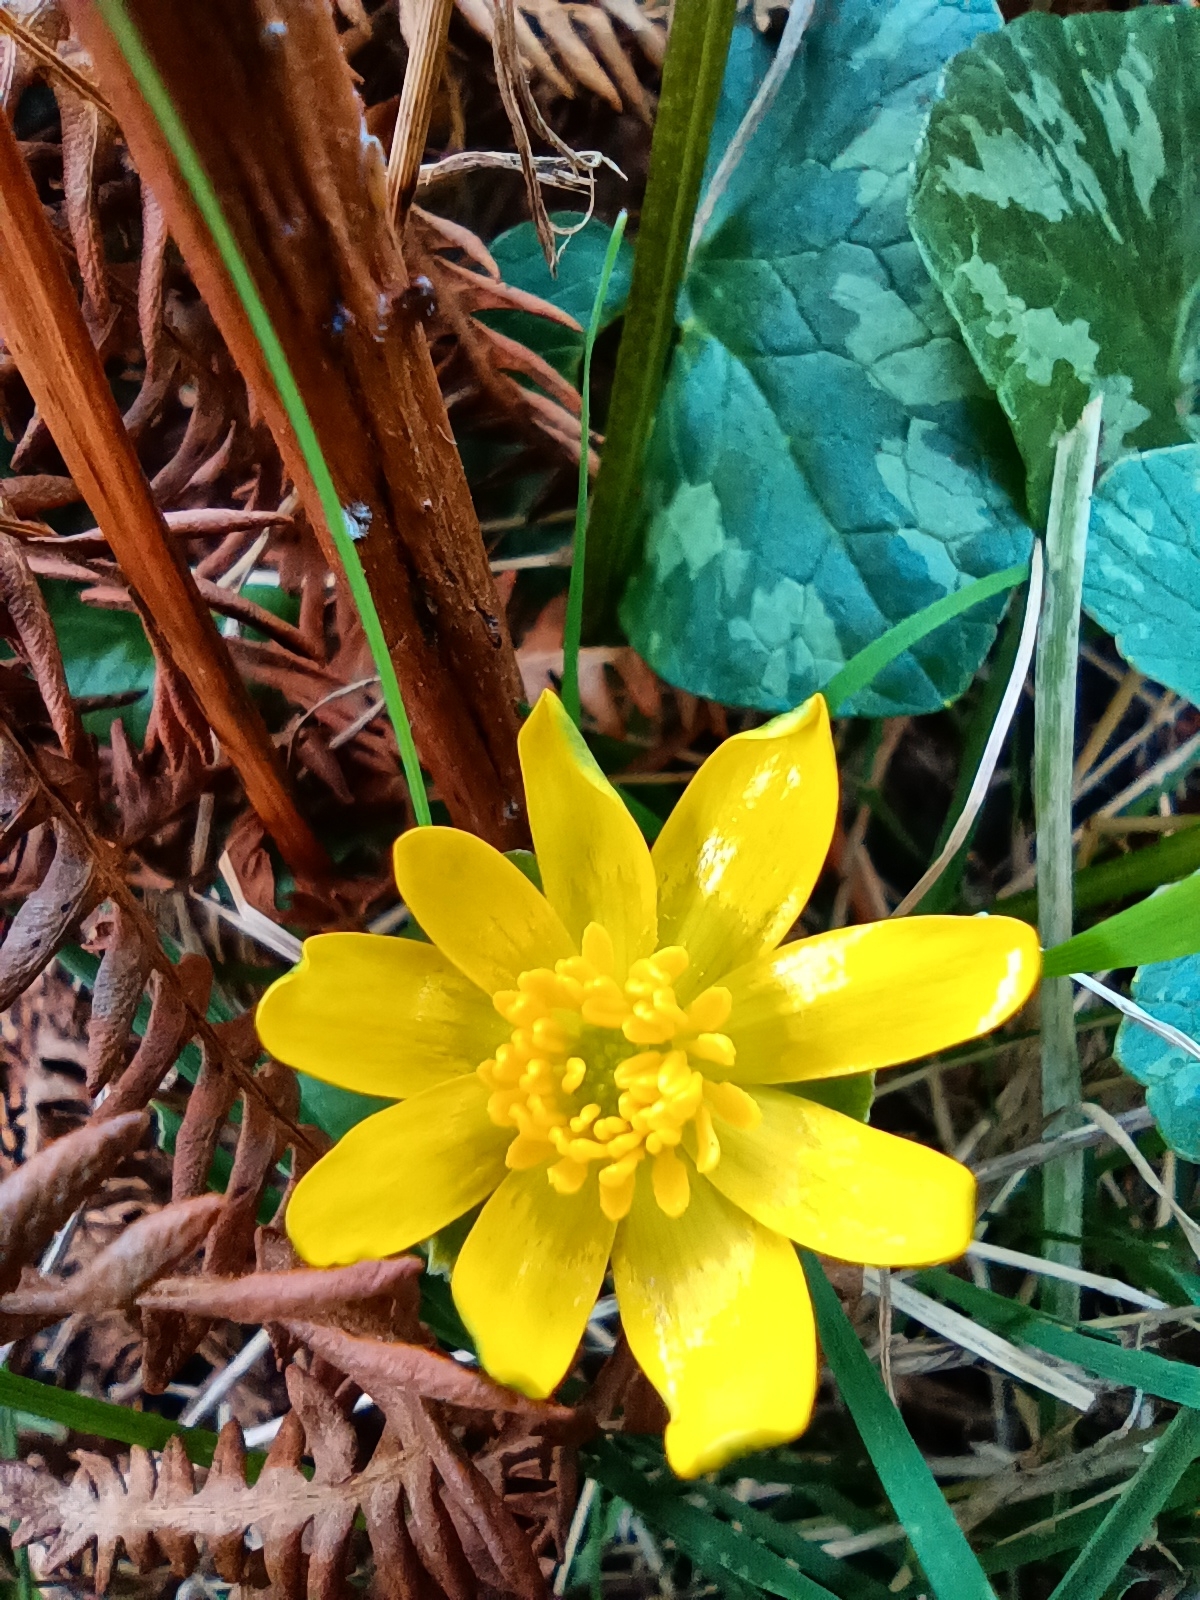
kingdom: Plantae
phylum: Tracheophyta
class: Magnoliopsida
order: Ranunculales
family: Ranunculaceae
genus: Ficaria
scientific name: Ficaria verna
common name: Lesser celandine
